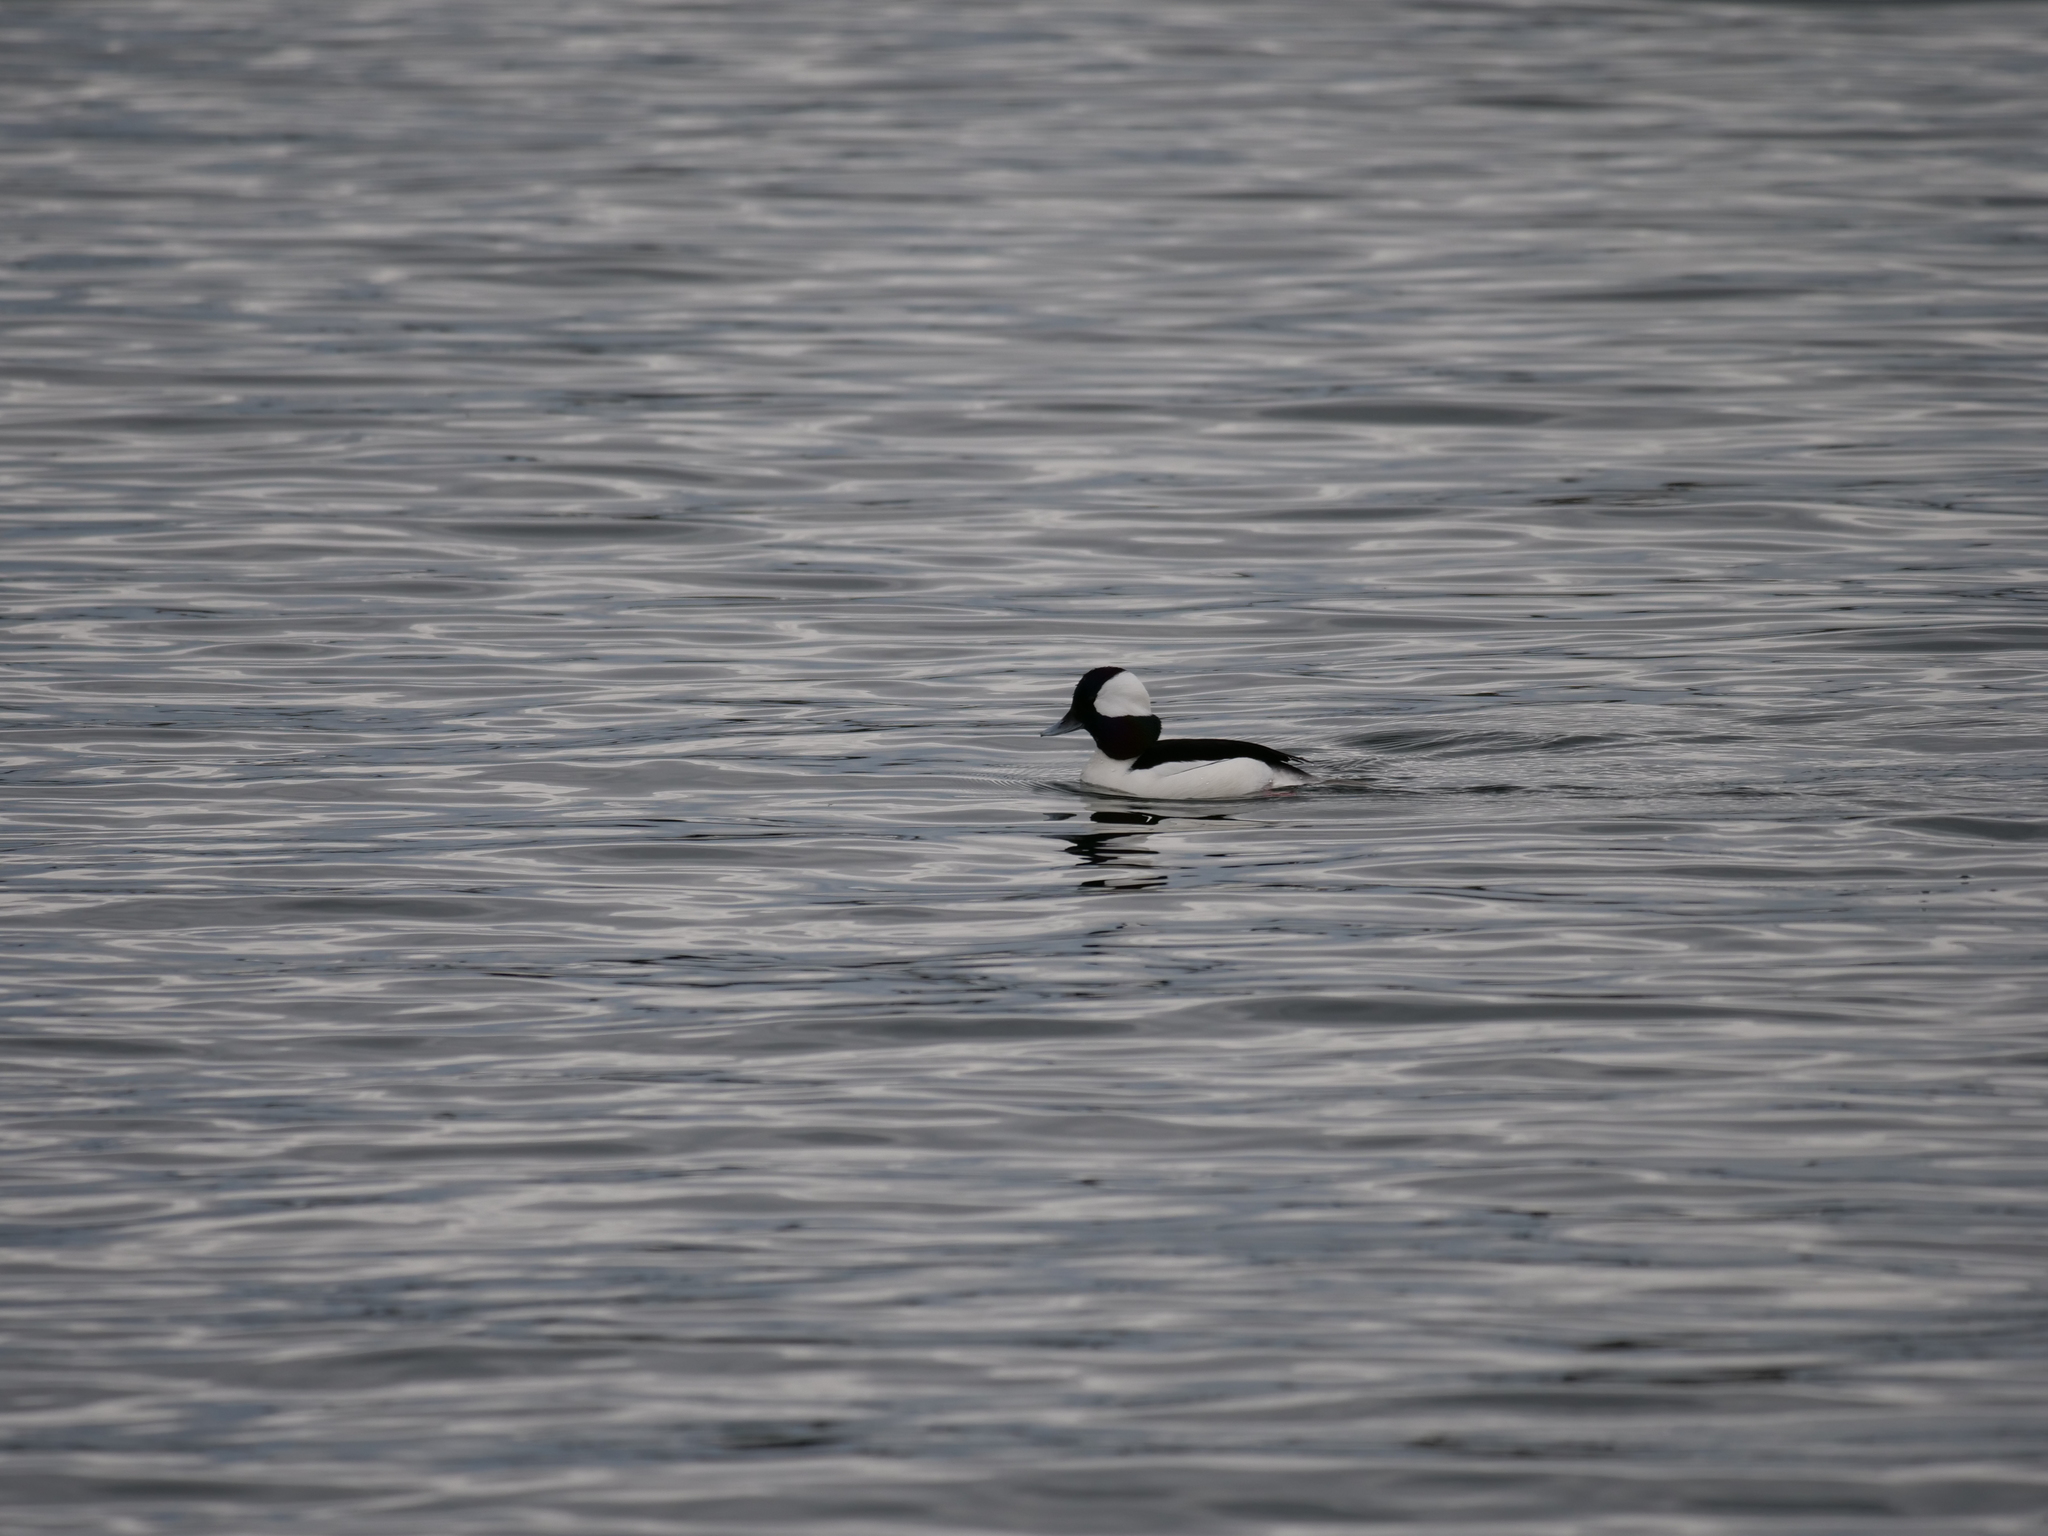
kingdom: Animalia
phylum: Chordata
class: Aves
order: Anseriformes
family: Anatidae
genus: Bucephala
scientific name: Bucephala albeola
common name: Bufflehead
